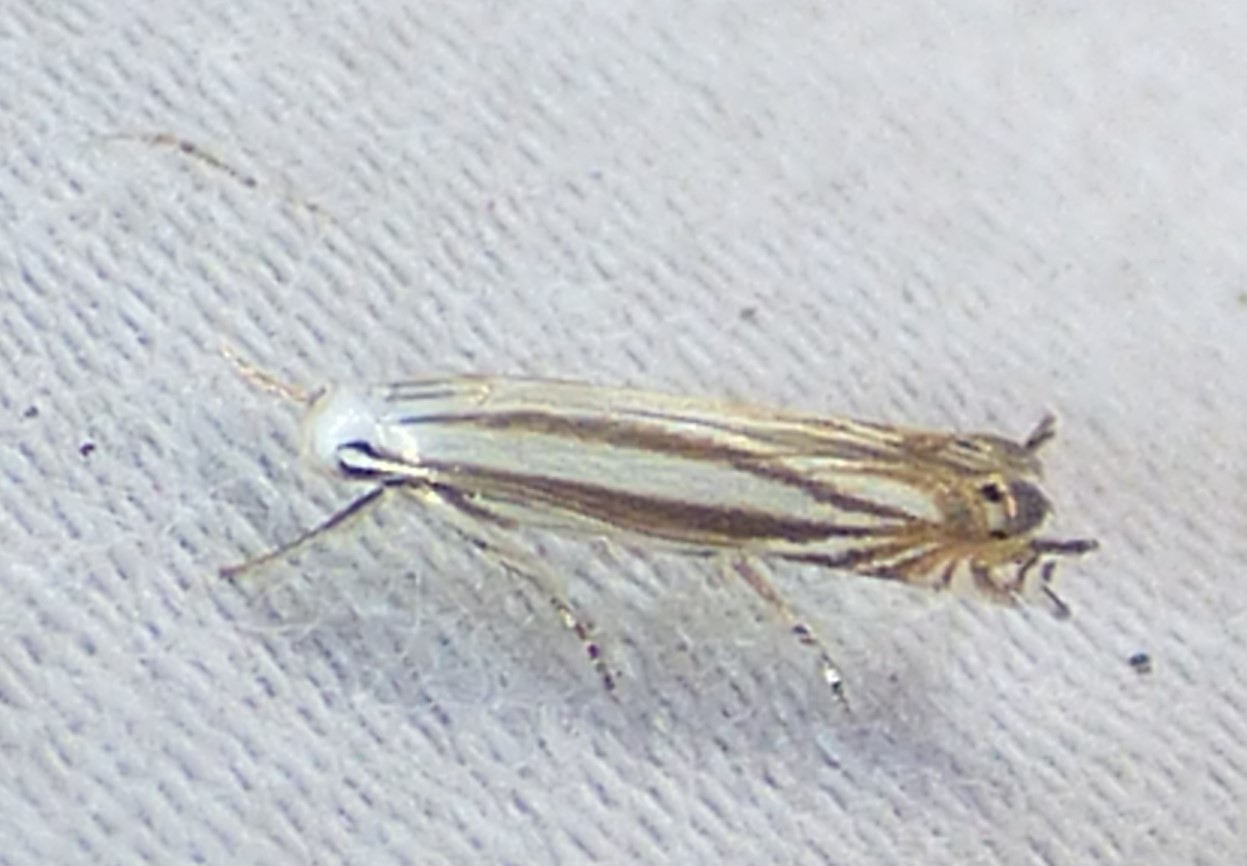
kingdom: Animalia
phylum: Arthropoda
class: Insecta
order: Lepidoptera
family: Gelechiidae
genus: Polyhymno
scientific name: Polyhymno luteostrigella
